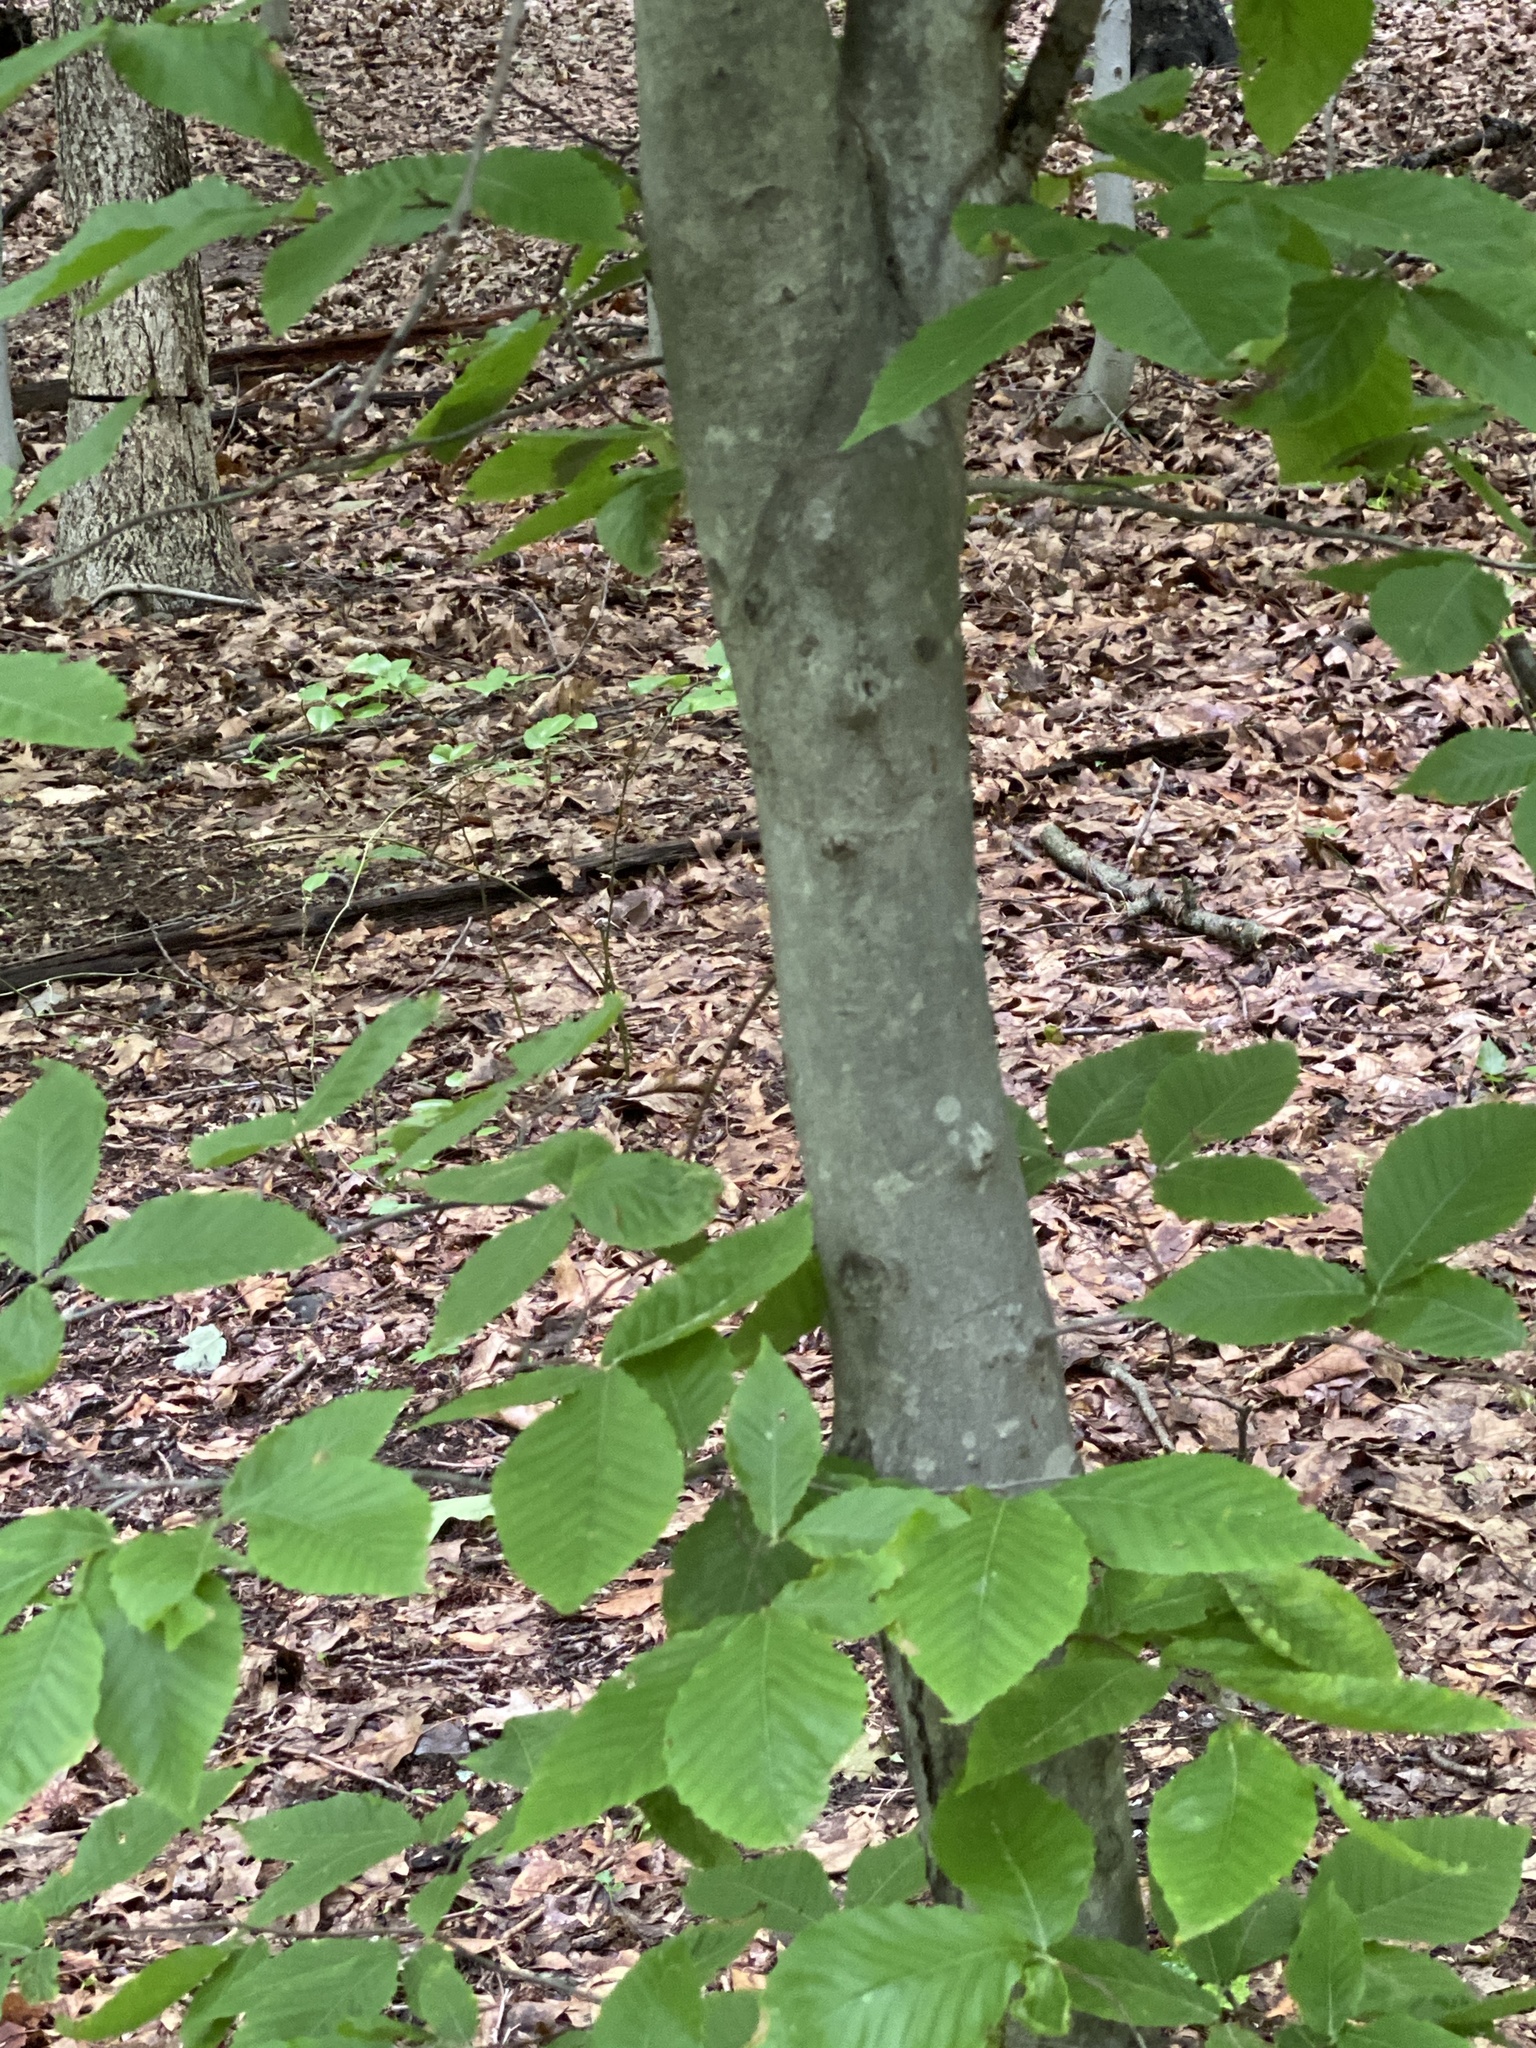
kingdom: Animalia
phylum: Nematoda
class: Chromadorea
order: Rhabditida
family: Anguinidae
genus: Litylenchus
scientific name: Litylenchus crenatae
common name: Beech leaf disease
